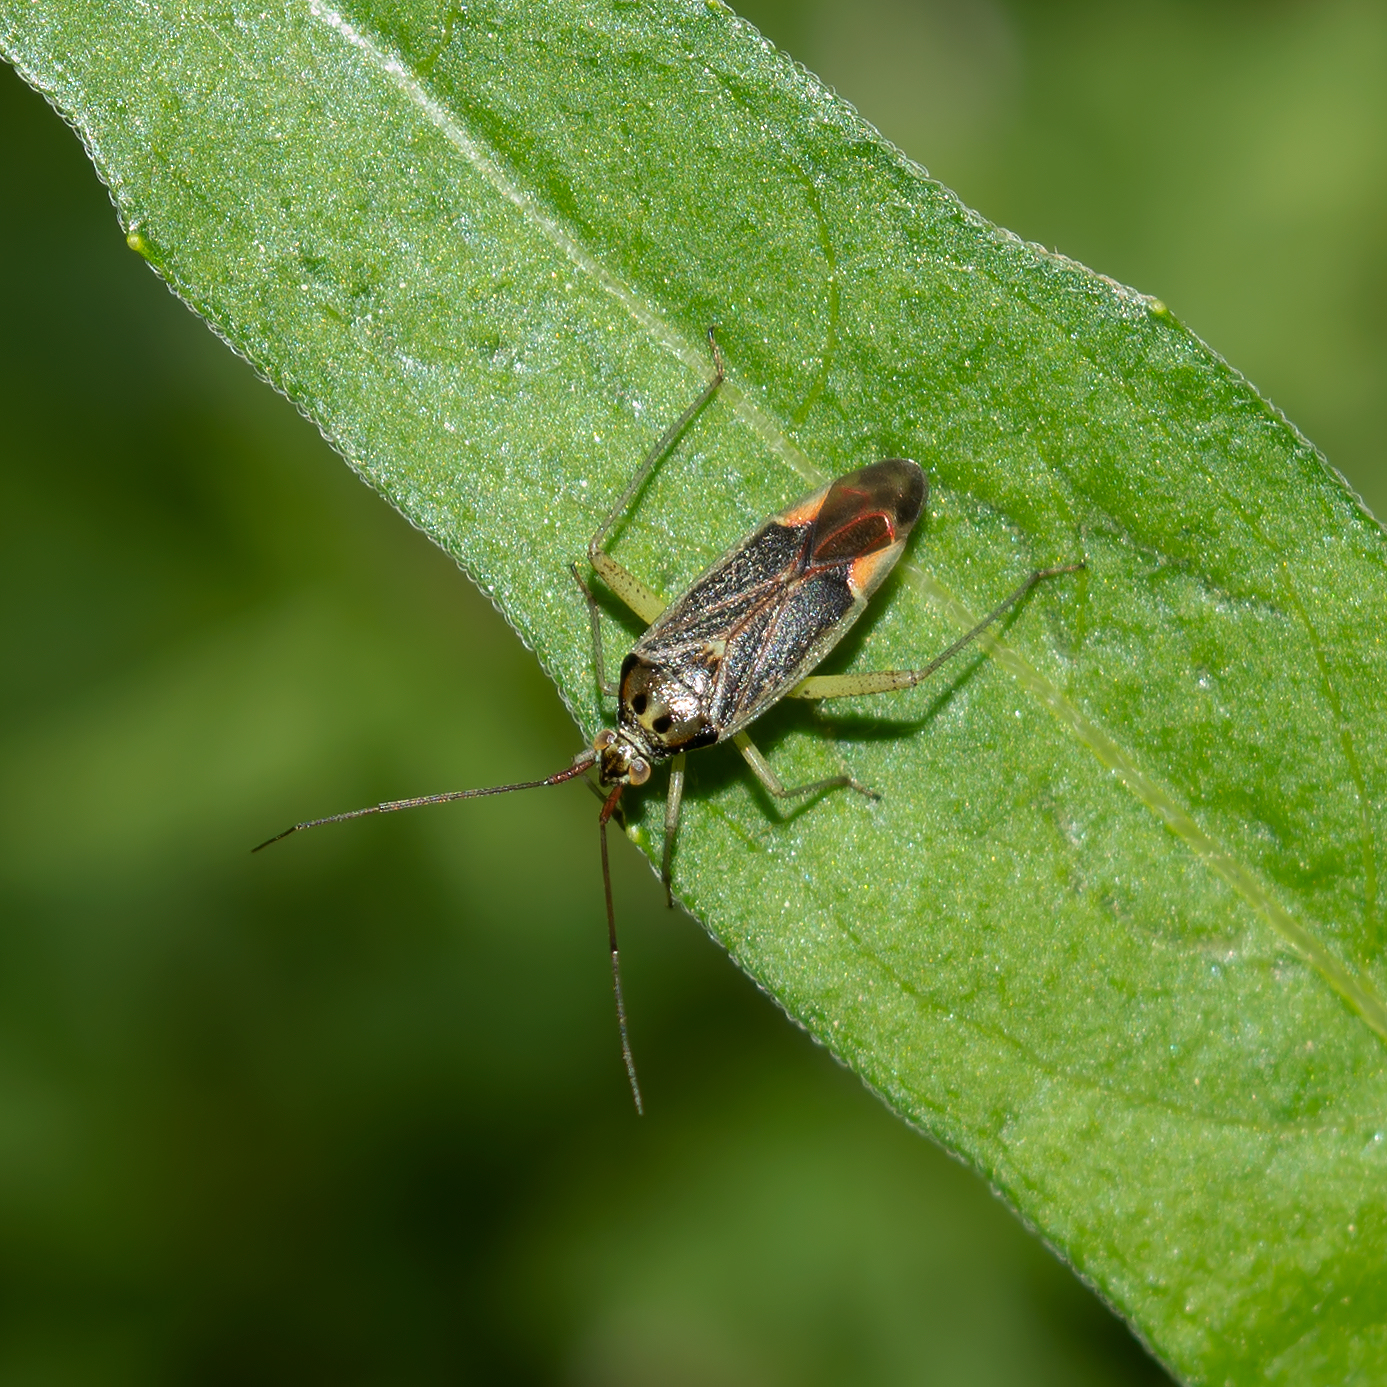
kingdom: Animalia
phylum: Arthropoda
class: Insecta
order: Hemiptera
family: Miridae
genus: Closterotomus
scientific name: Closterotomus trivialis
